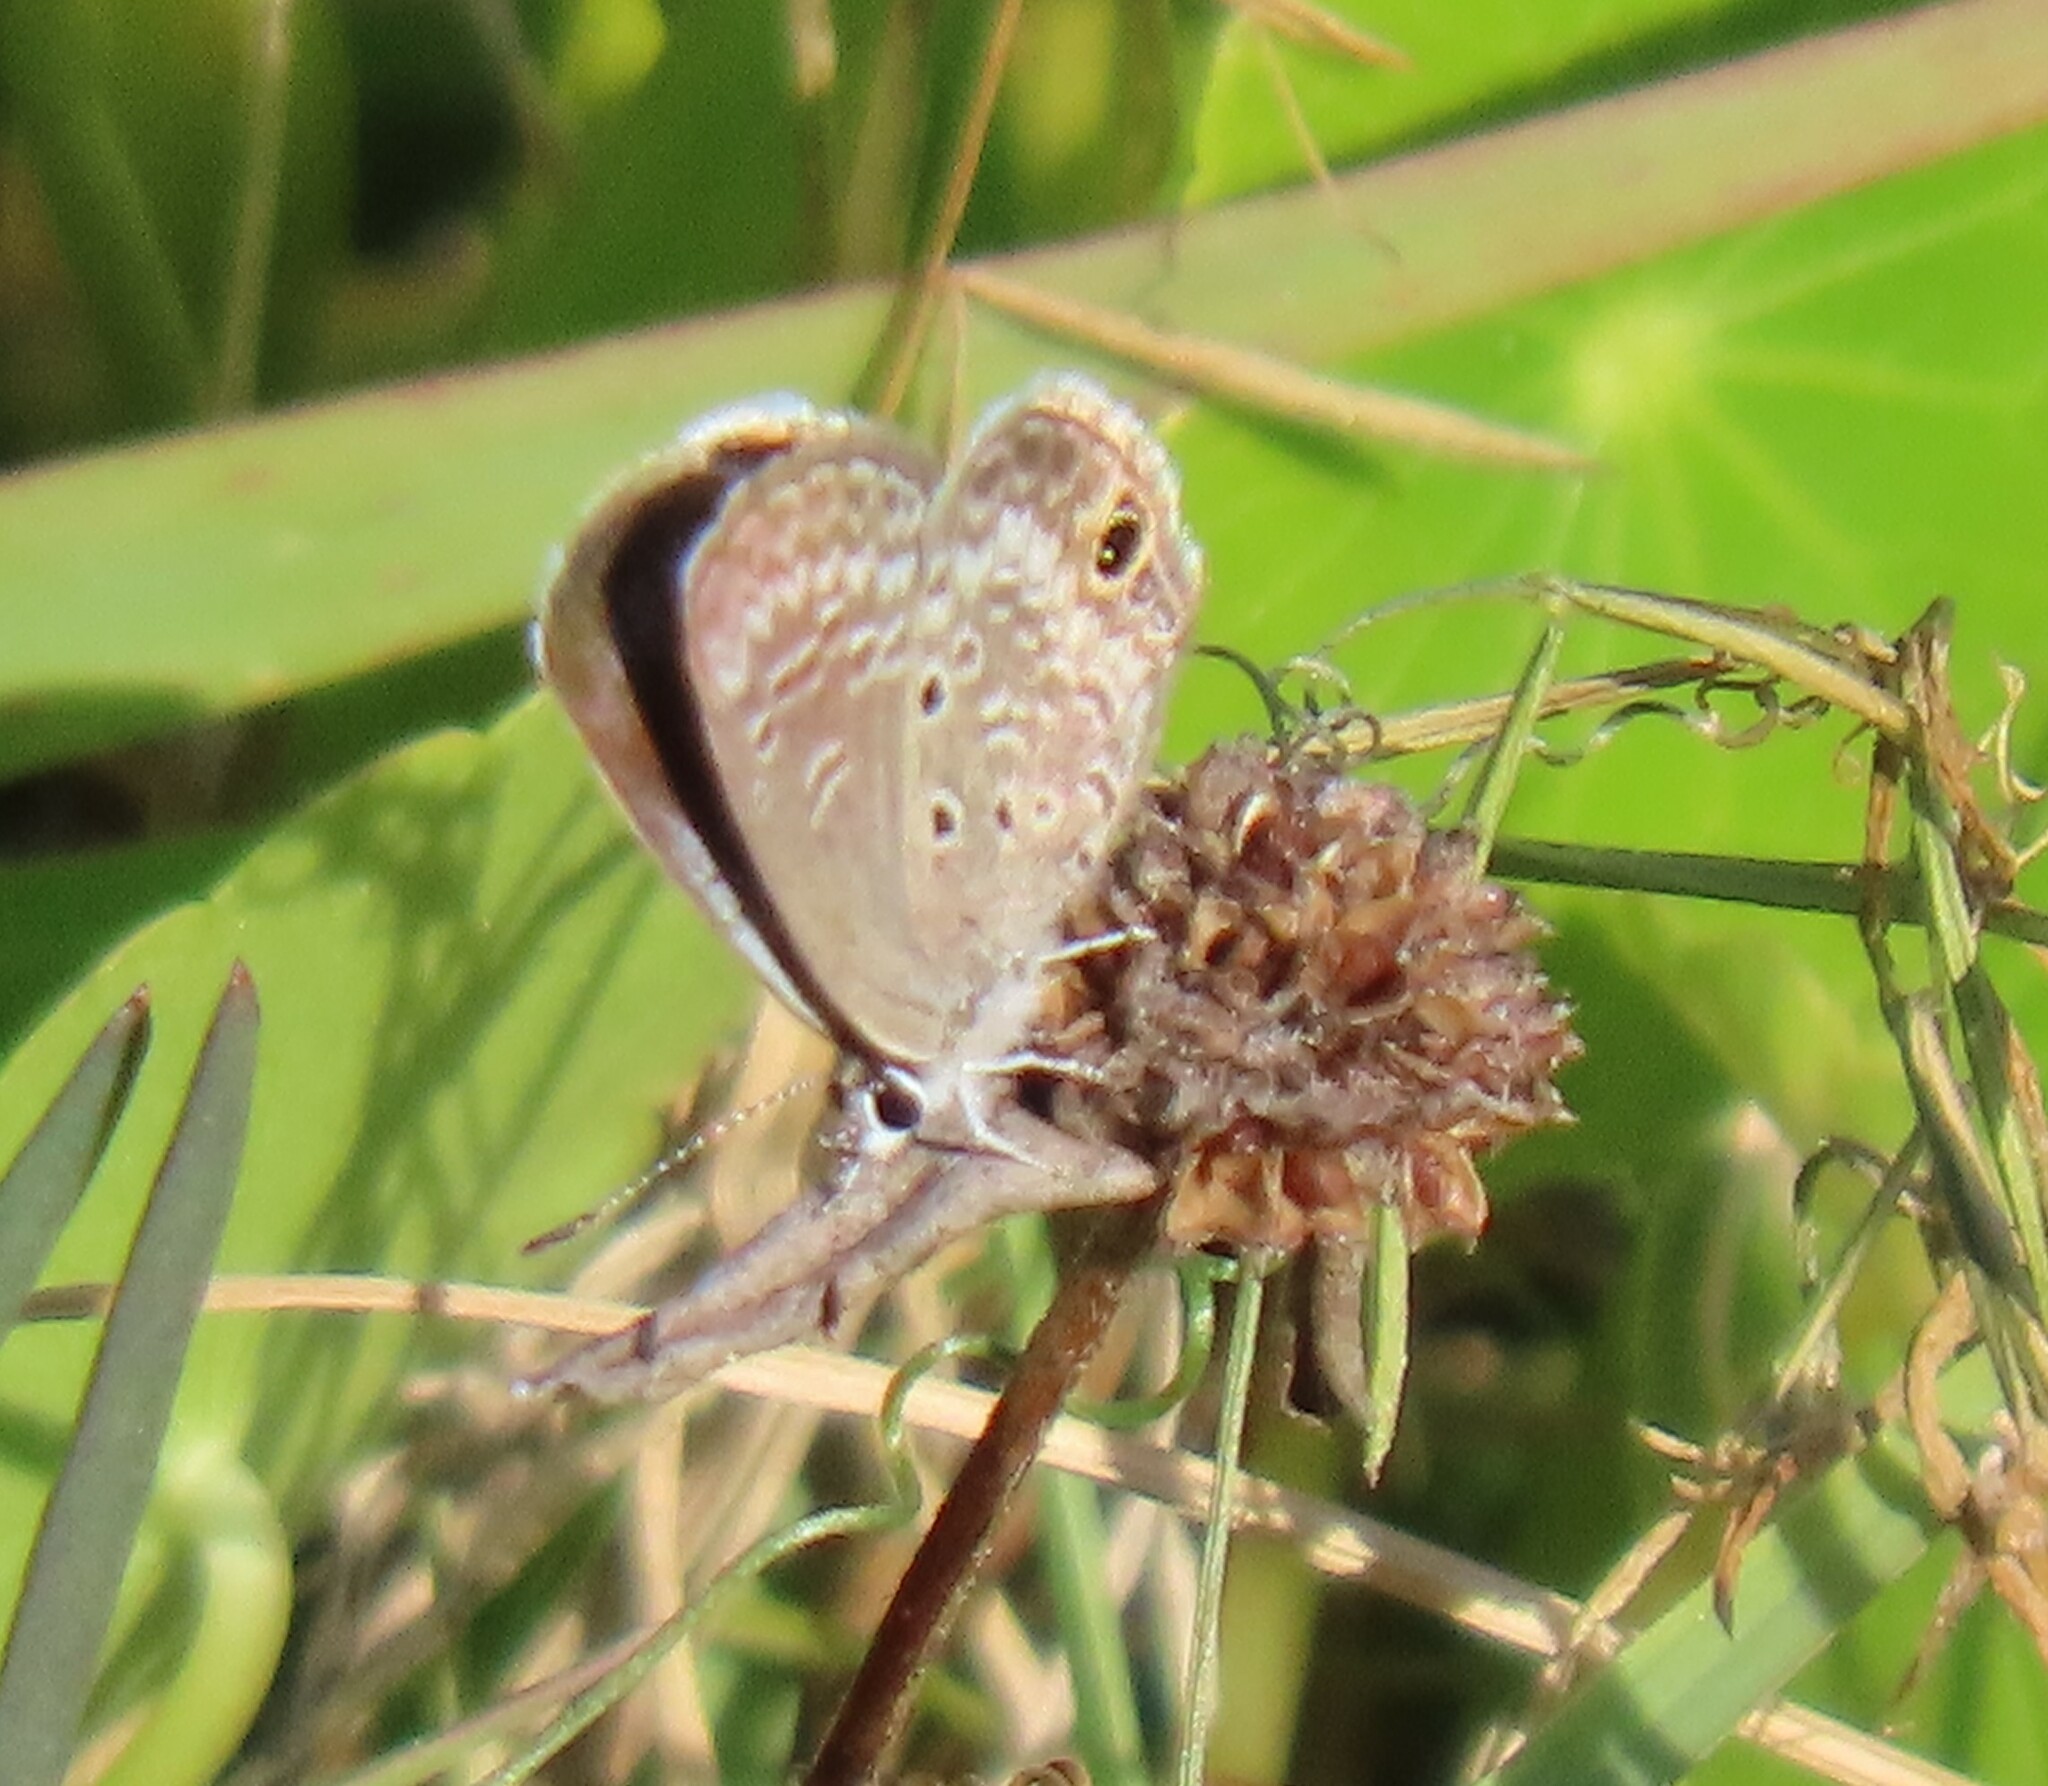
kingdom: Animalia
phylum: Arthropoda
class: Insecta
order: Lepidoptera
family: Lycaenidae
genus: Hemiargus
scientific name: Hemiargus ceraunus
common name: Ceraunus blue
